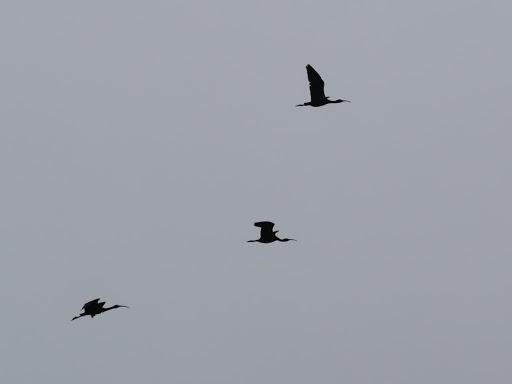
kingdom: Animalia
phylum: Chordata
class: Aves
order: Pelecaniformes
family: Threskiornithidae
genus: Plegadis
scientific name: Plegadis falcinellus
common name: Glossy ibis
